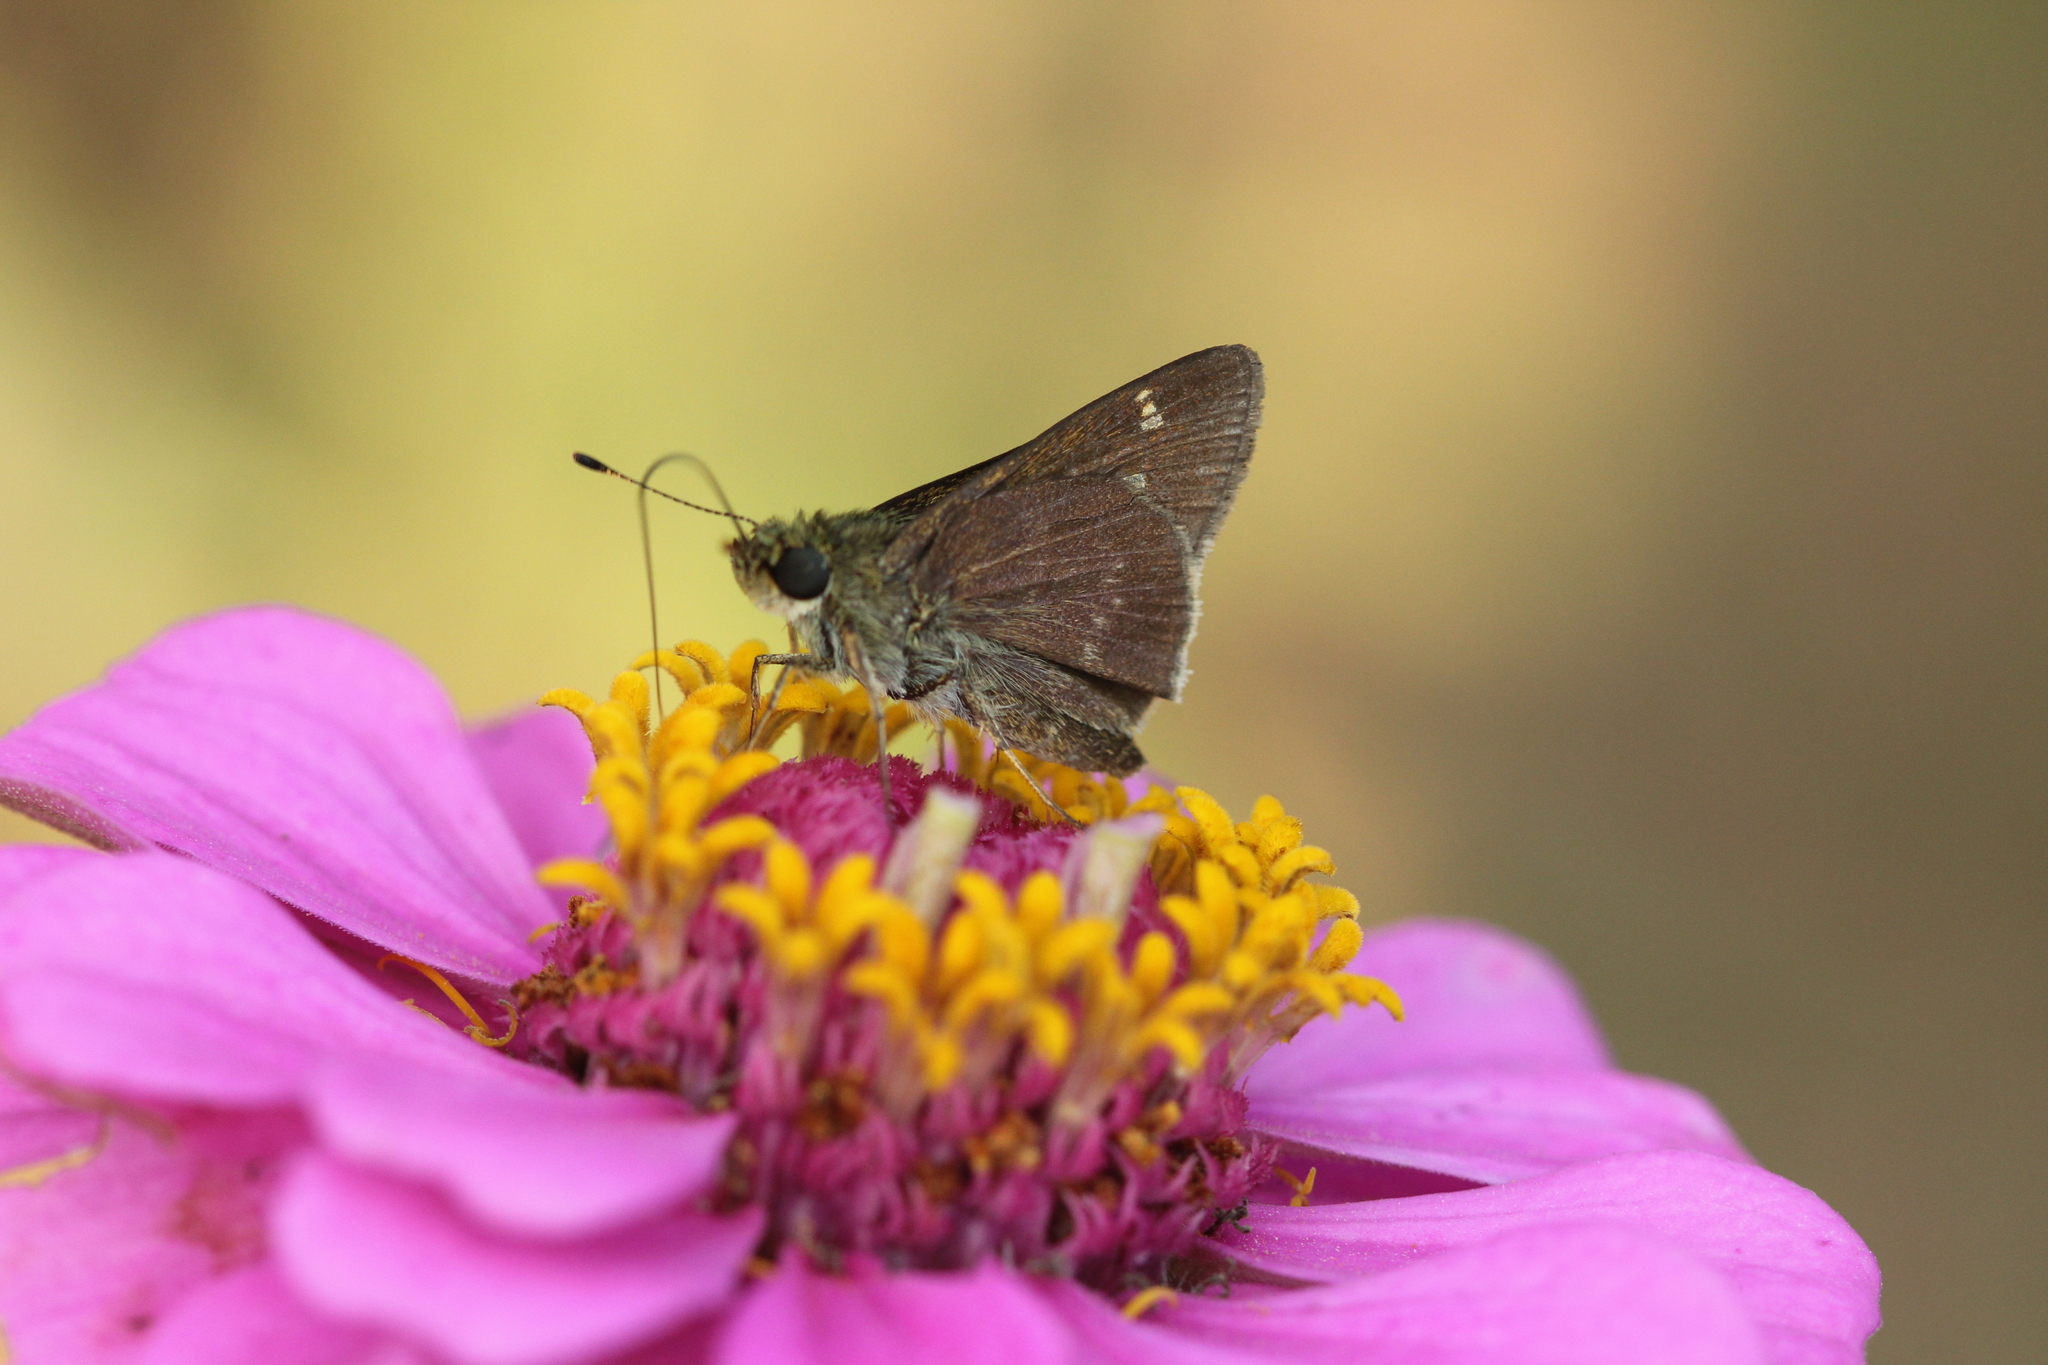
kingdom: Animalia
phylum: Arthropoda
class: Insecta
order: Lepidoptera
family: Hesperiidae
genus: Vernia
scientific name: Vernia verna
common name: Little glassywing
